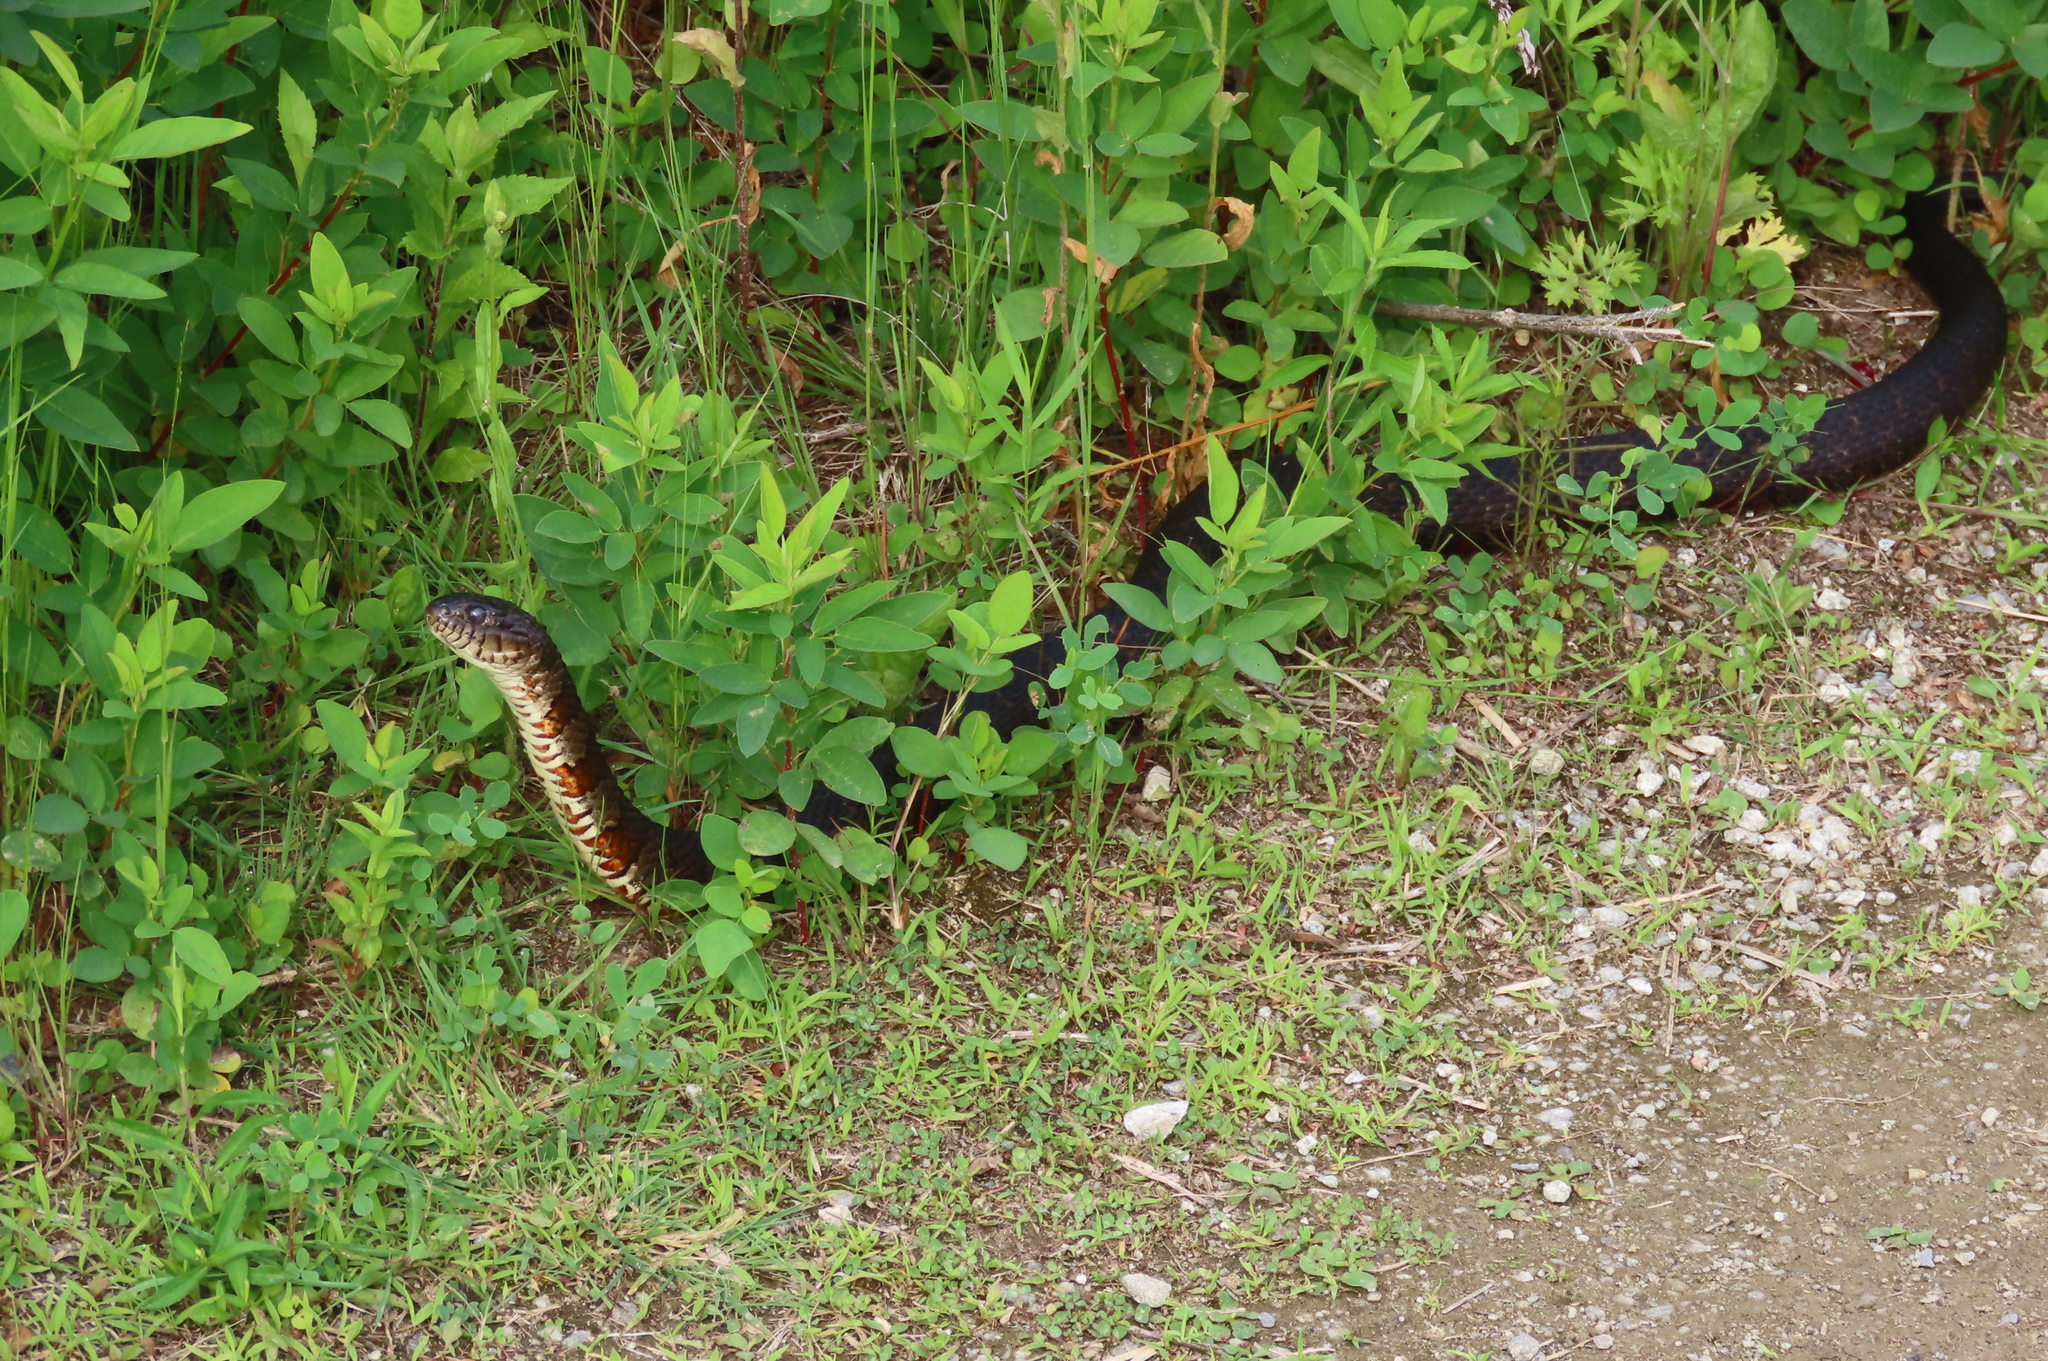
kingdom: Animalia
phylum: Chordata
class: Squamata
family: Colubridae
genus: Nerodia
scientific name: Nerodia sipedon
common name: Northern water snake
